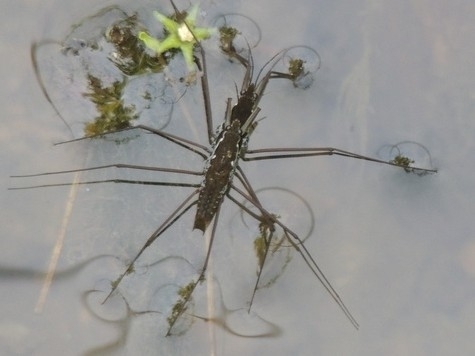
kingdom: Animalia
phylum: Arthropoda
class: Insecta
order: Hemiptera
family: Gerridae
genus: Aquarius
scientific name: Aquarius
